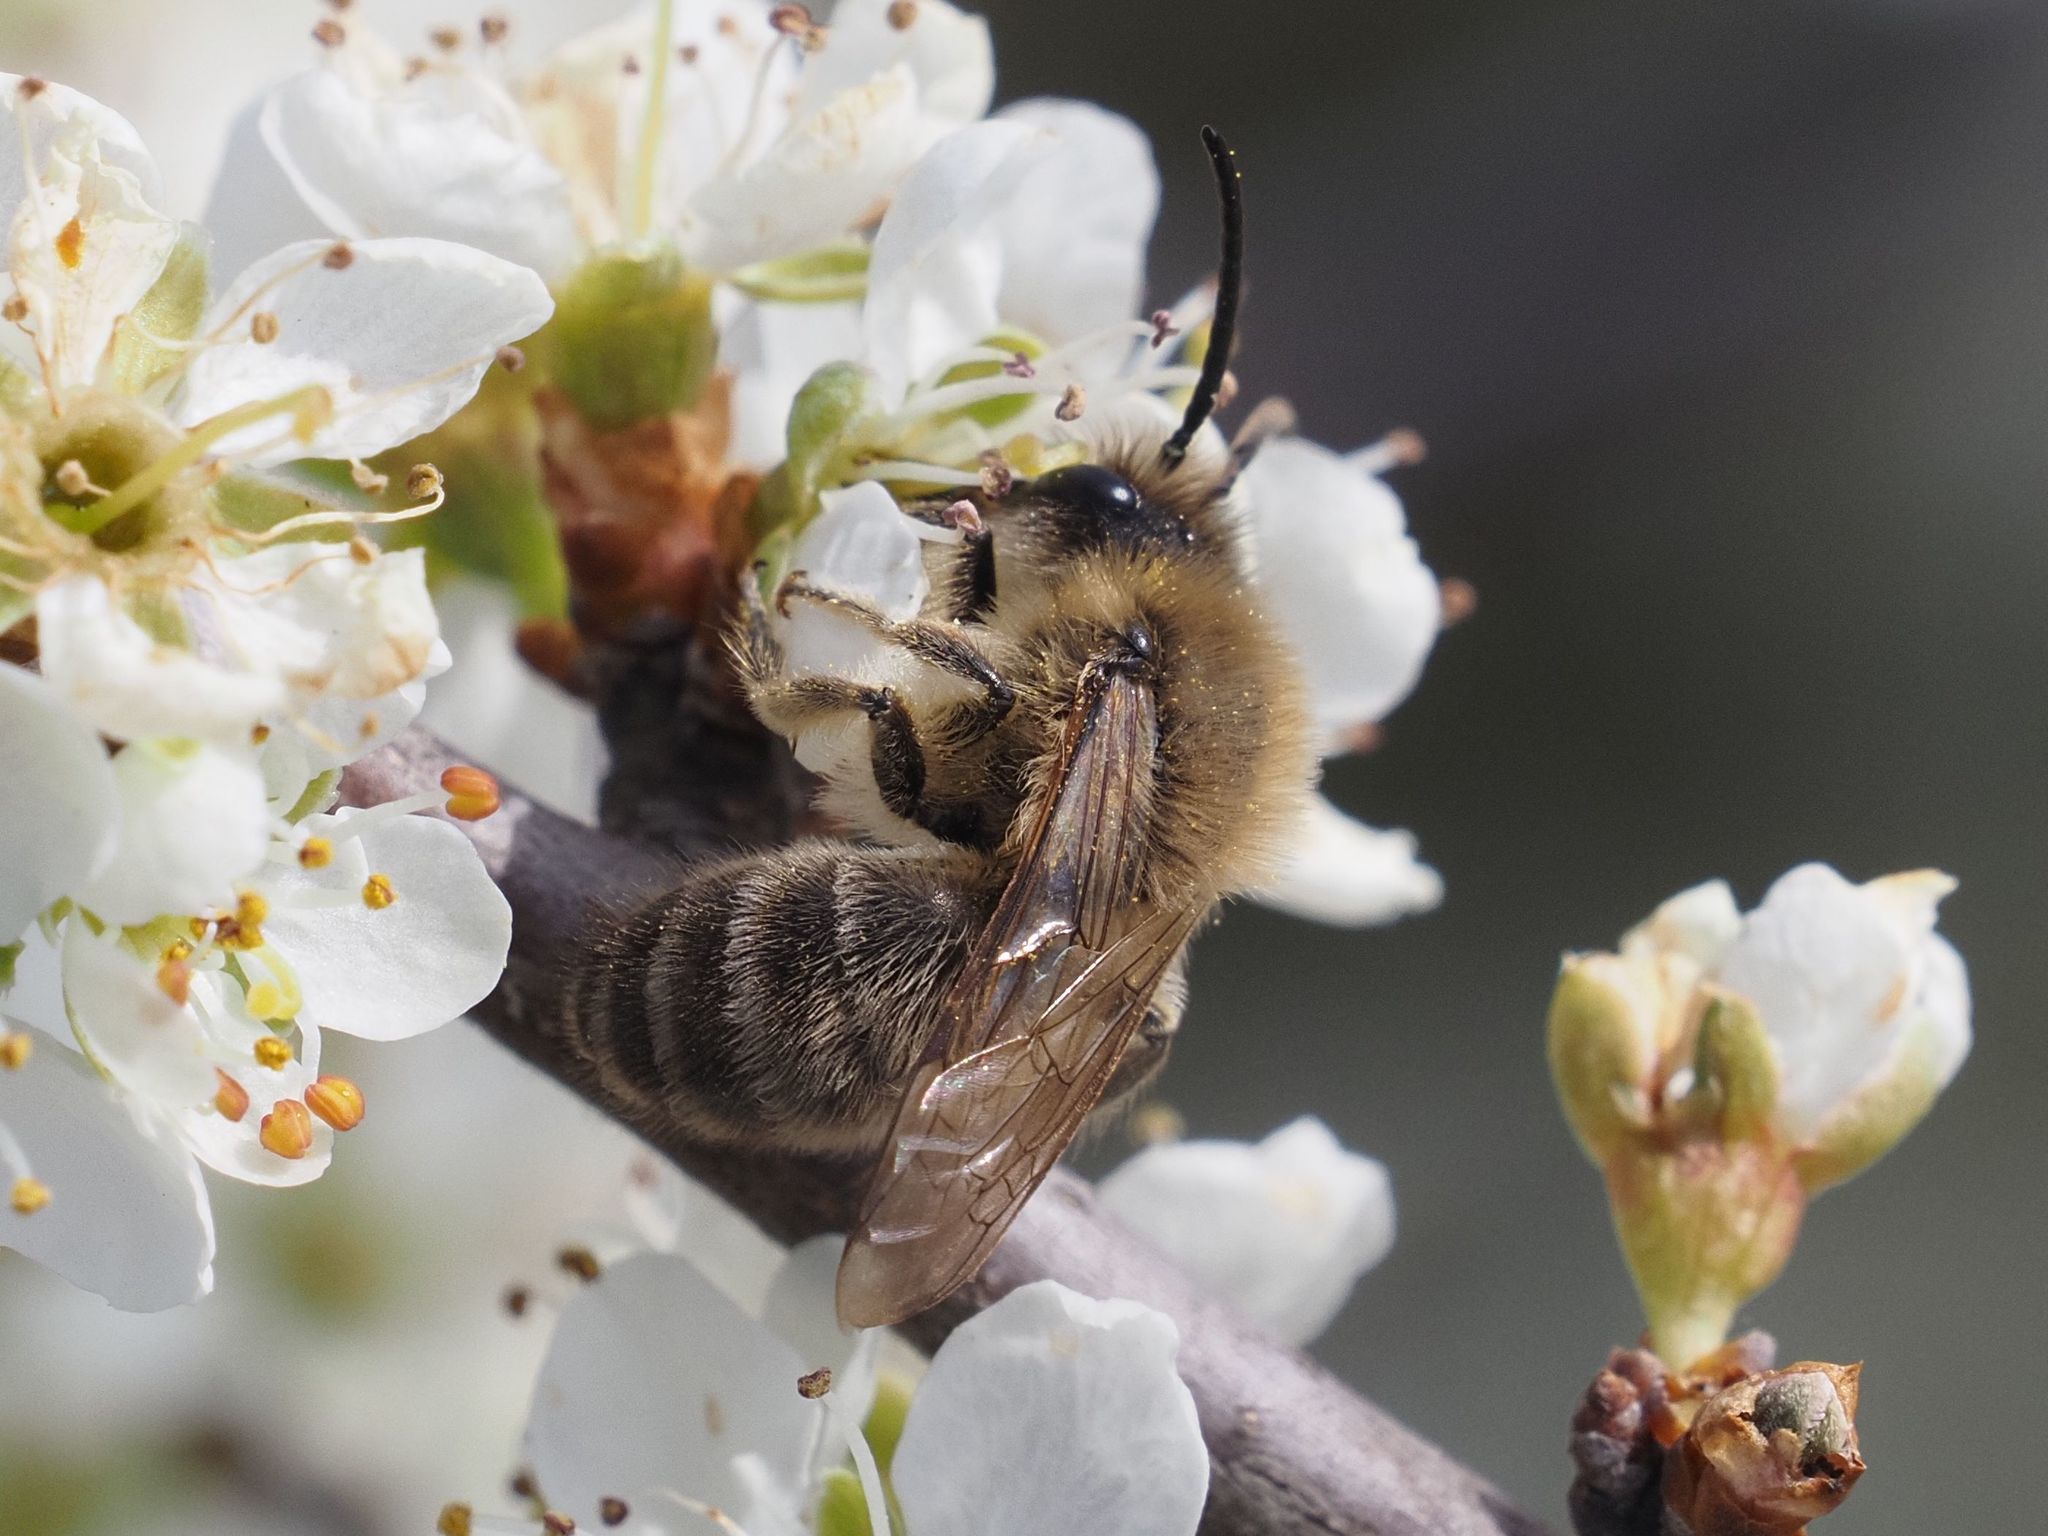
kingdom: Animalia
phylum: Arthropoda
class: Insecta
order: Hymenoptera
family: Colletidae
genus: Colletes
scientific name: Colletes cunicularius
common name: Early colletes
